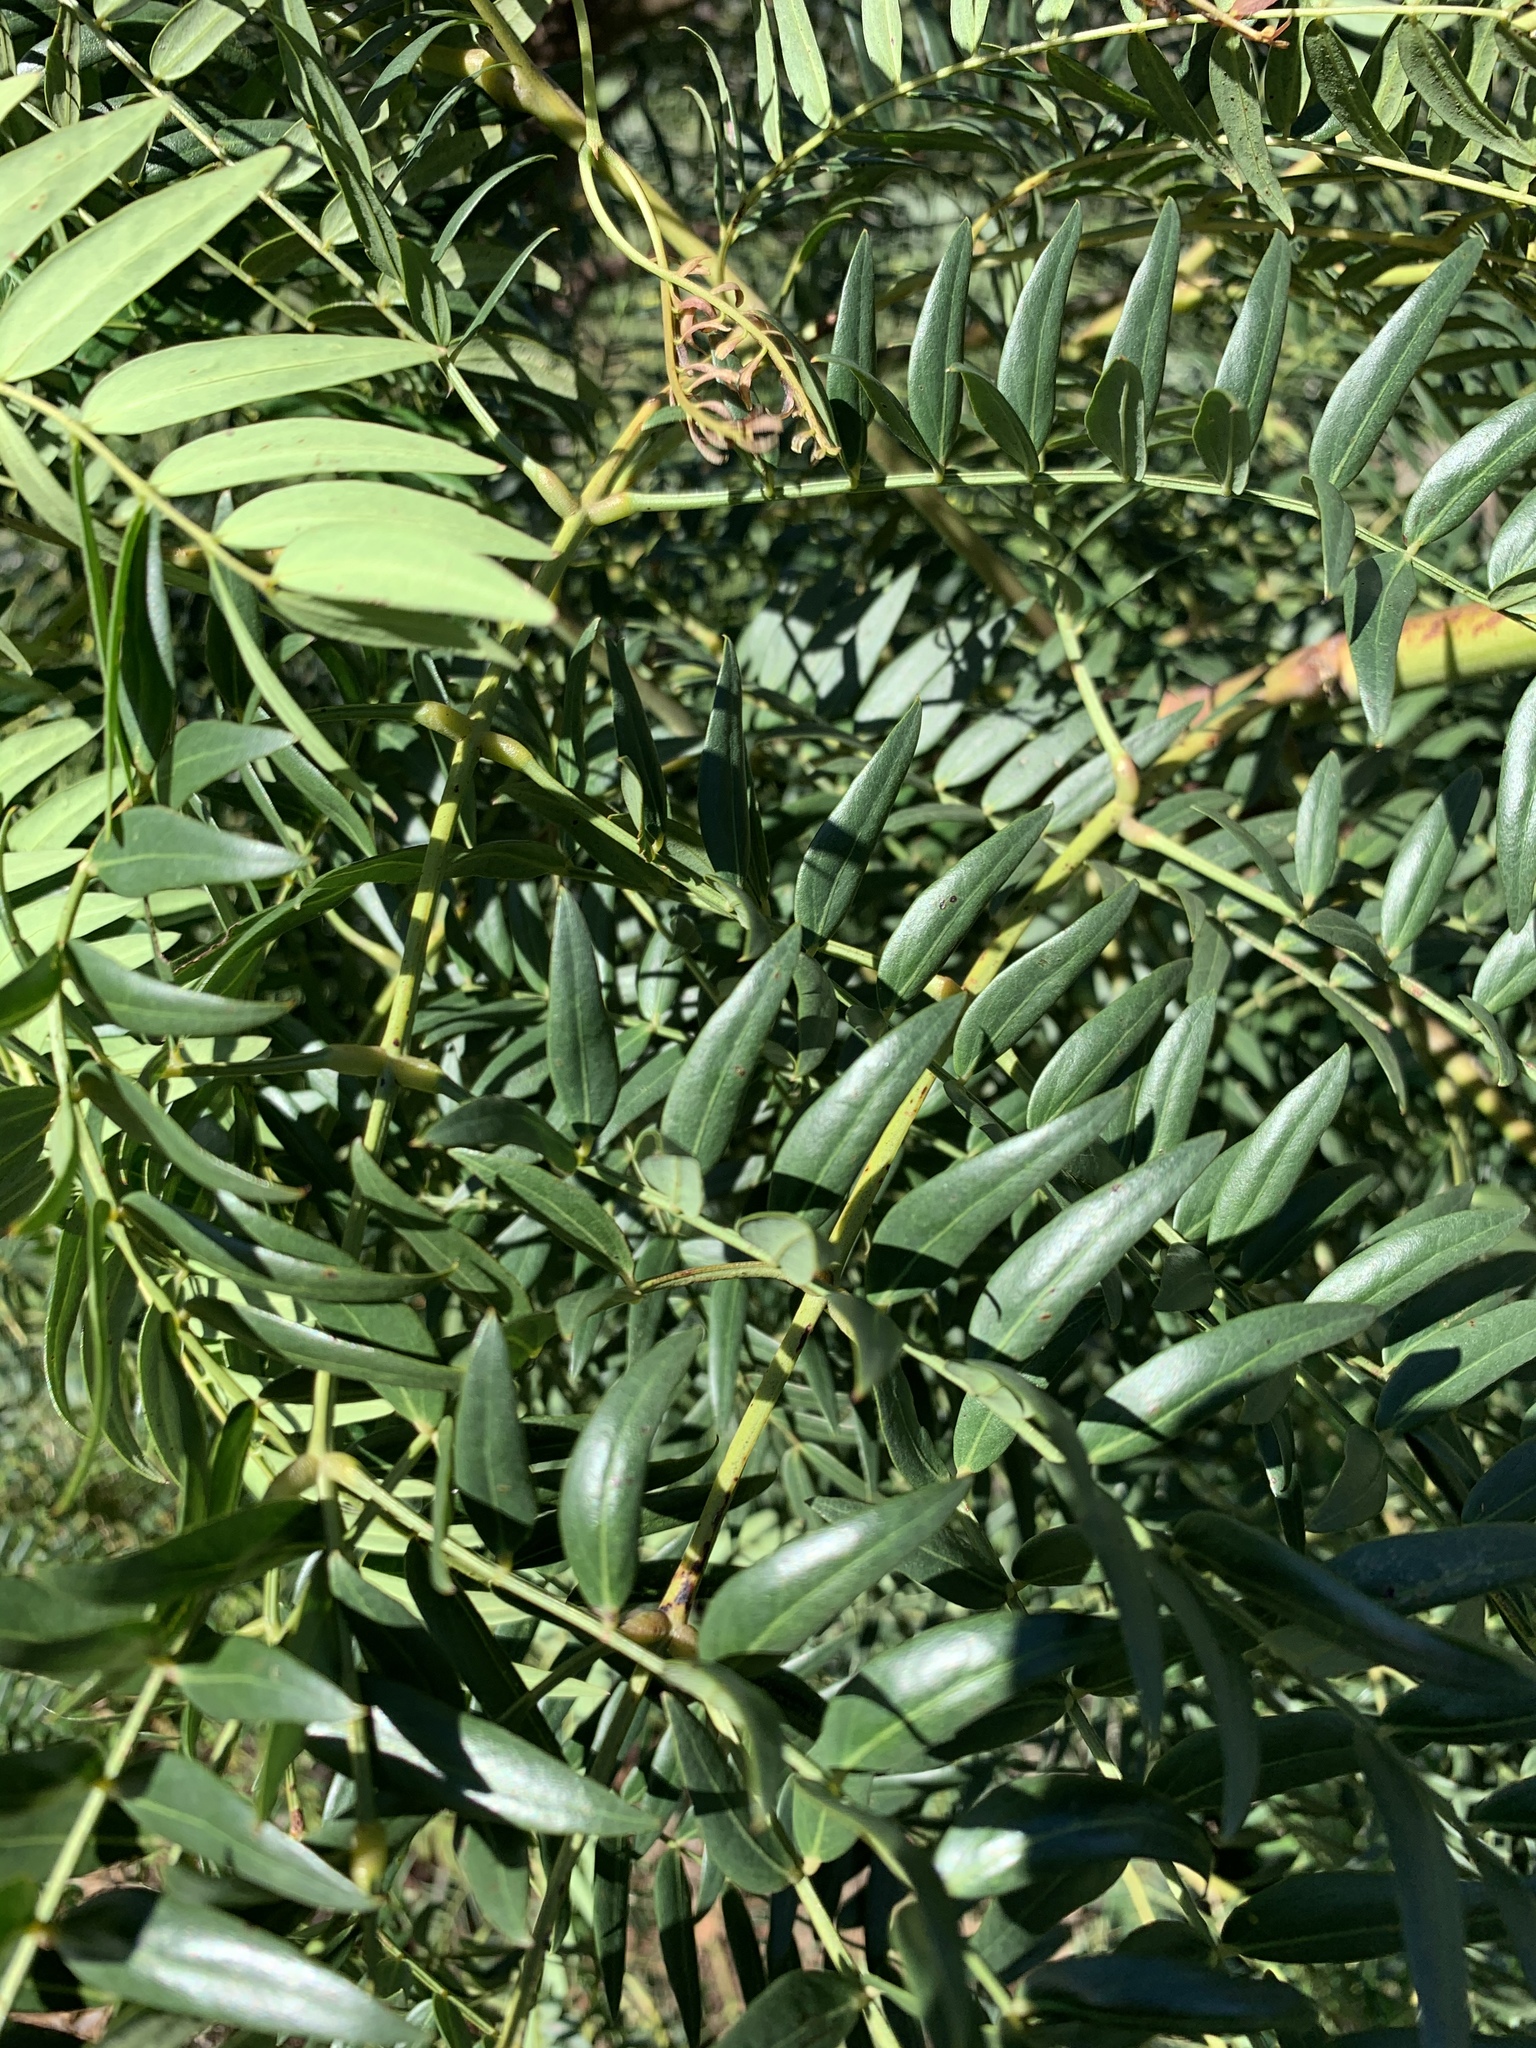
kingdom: Plantae
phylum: Tracheophyta
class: Magnoliopsida
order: Fabales
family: Fabaceae
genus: Acacia
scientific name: Acacia elata
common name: Cedar wattle
